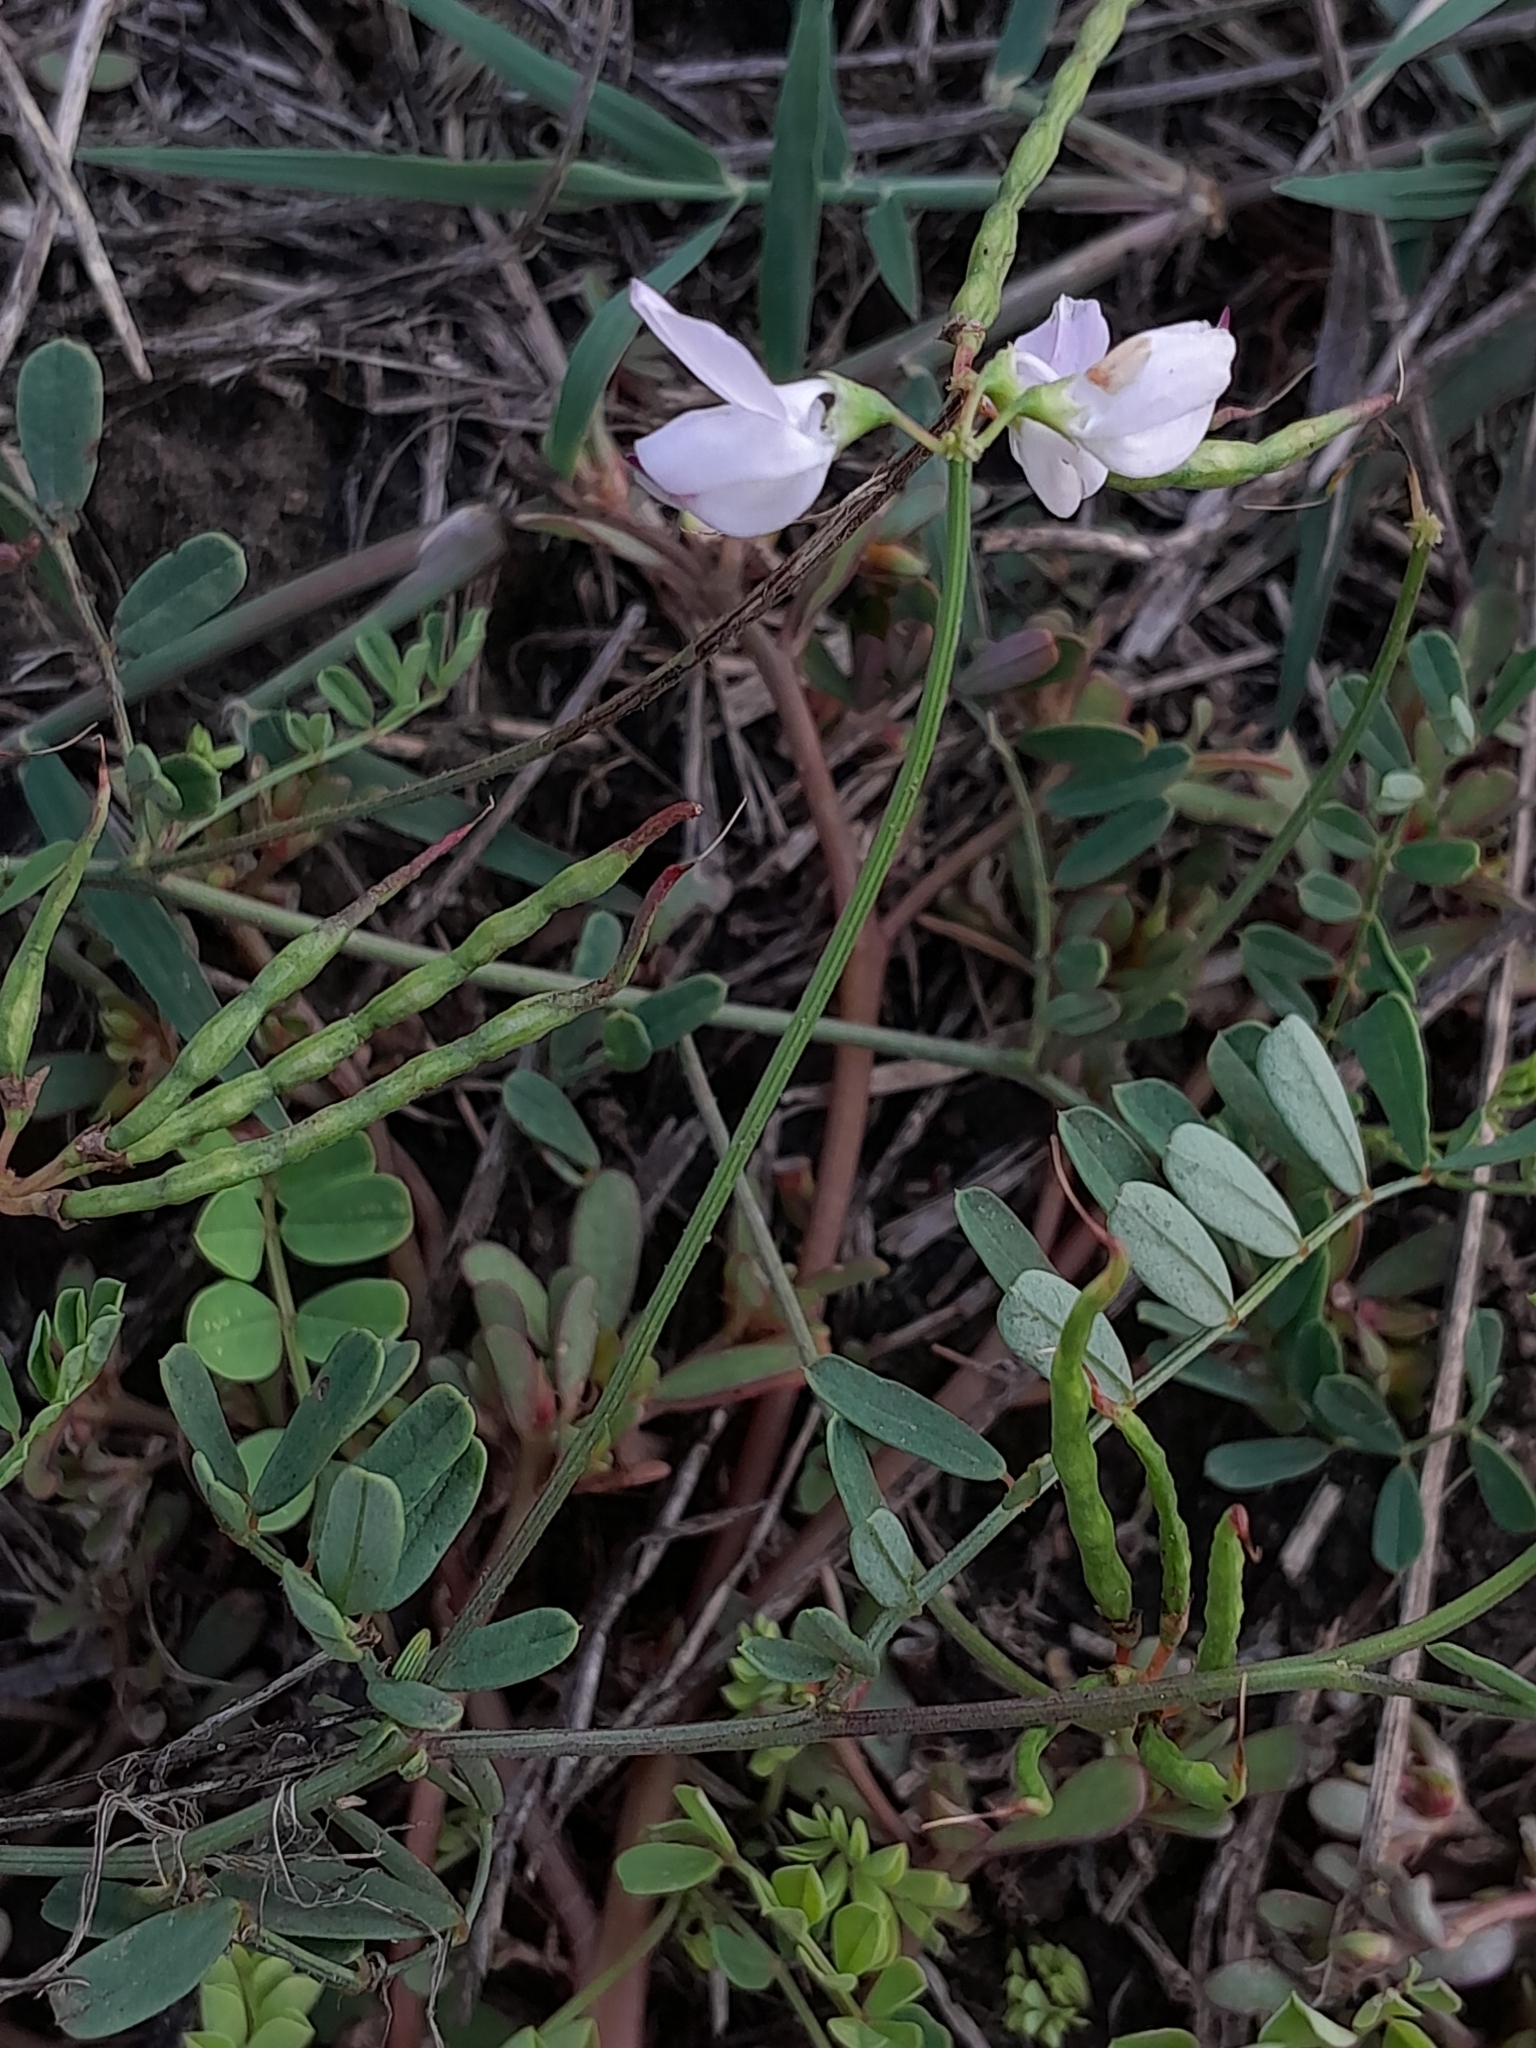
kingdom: Plantae
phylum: Tracheophyta
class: Magnoliopsida
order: Fabales
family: Fabaceae
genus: Coronilla
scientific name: Coronilla varia
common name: Crownvetch
